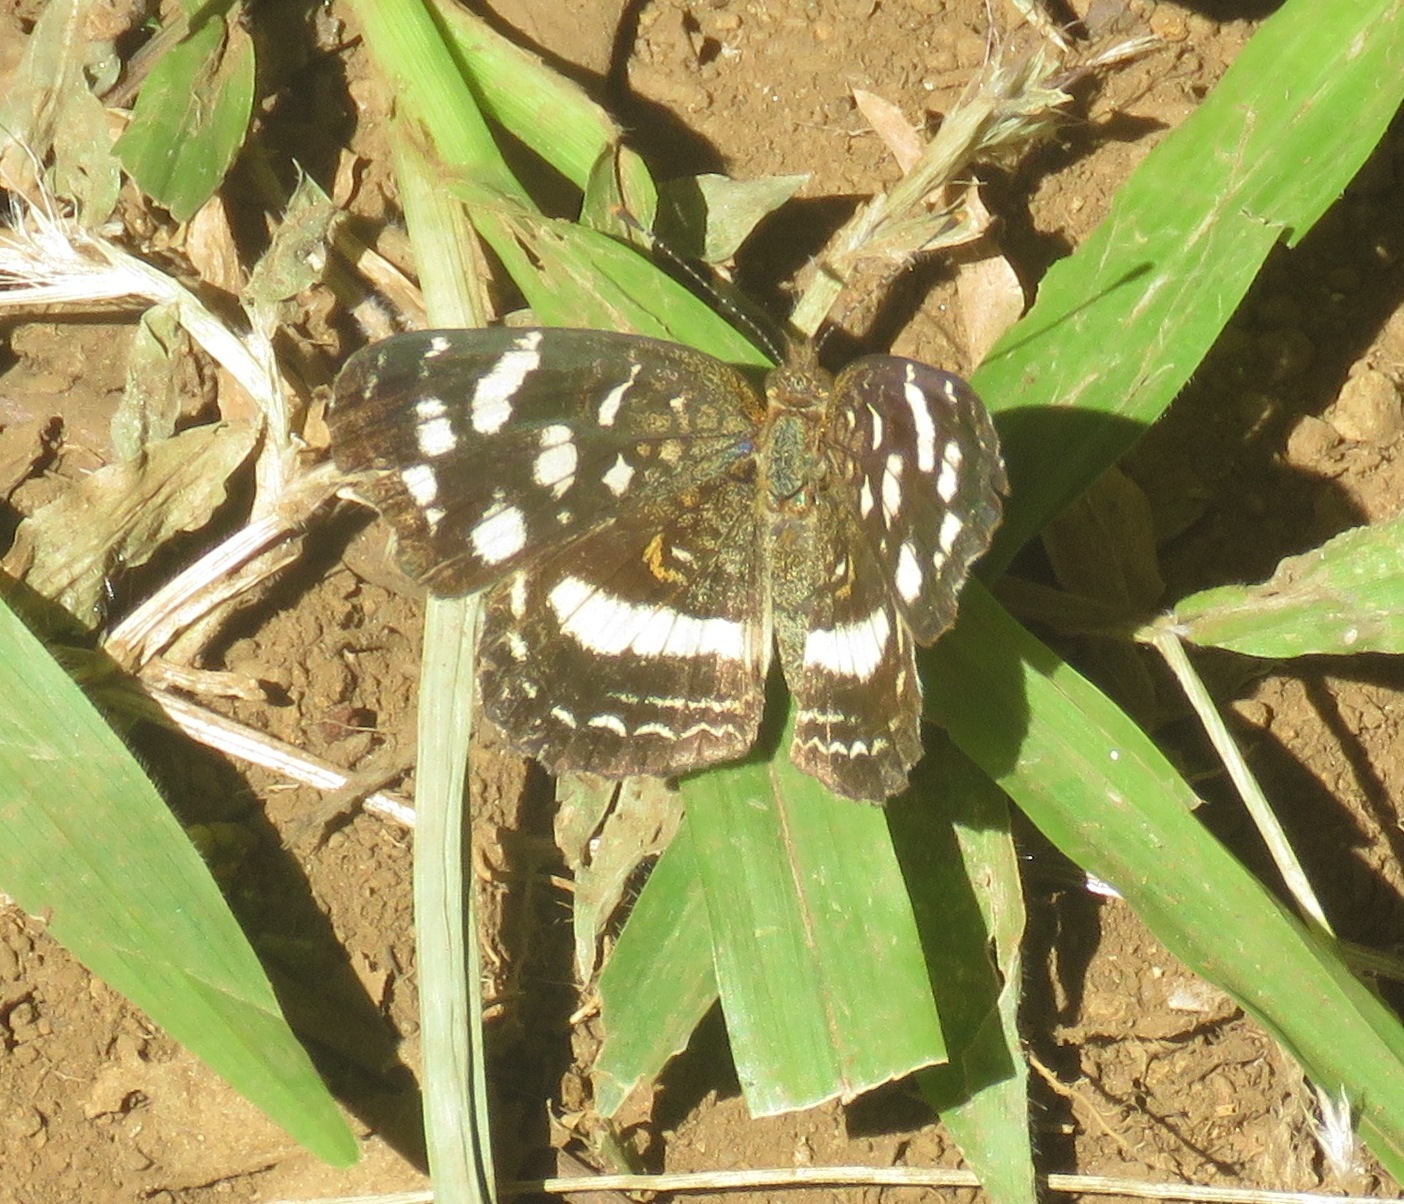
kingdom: Animalia
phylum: Arthropoda
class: Insecta
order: Lepidoptera
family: Nymphalidae
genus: Anthanassa
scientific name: Anthanassa tulcis
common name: Pale-banded crescent
